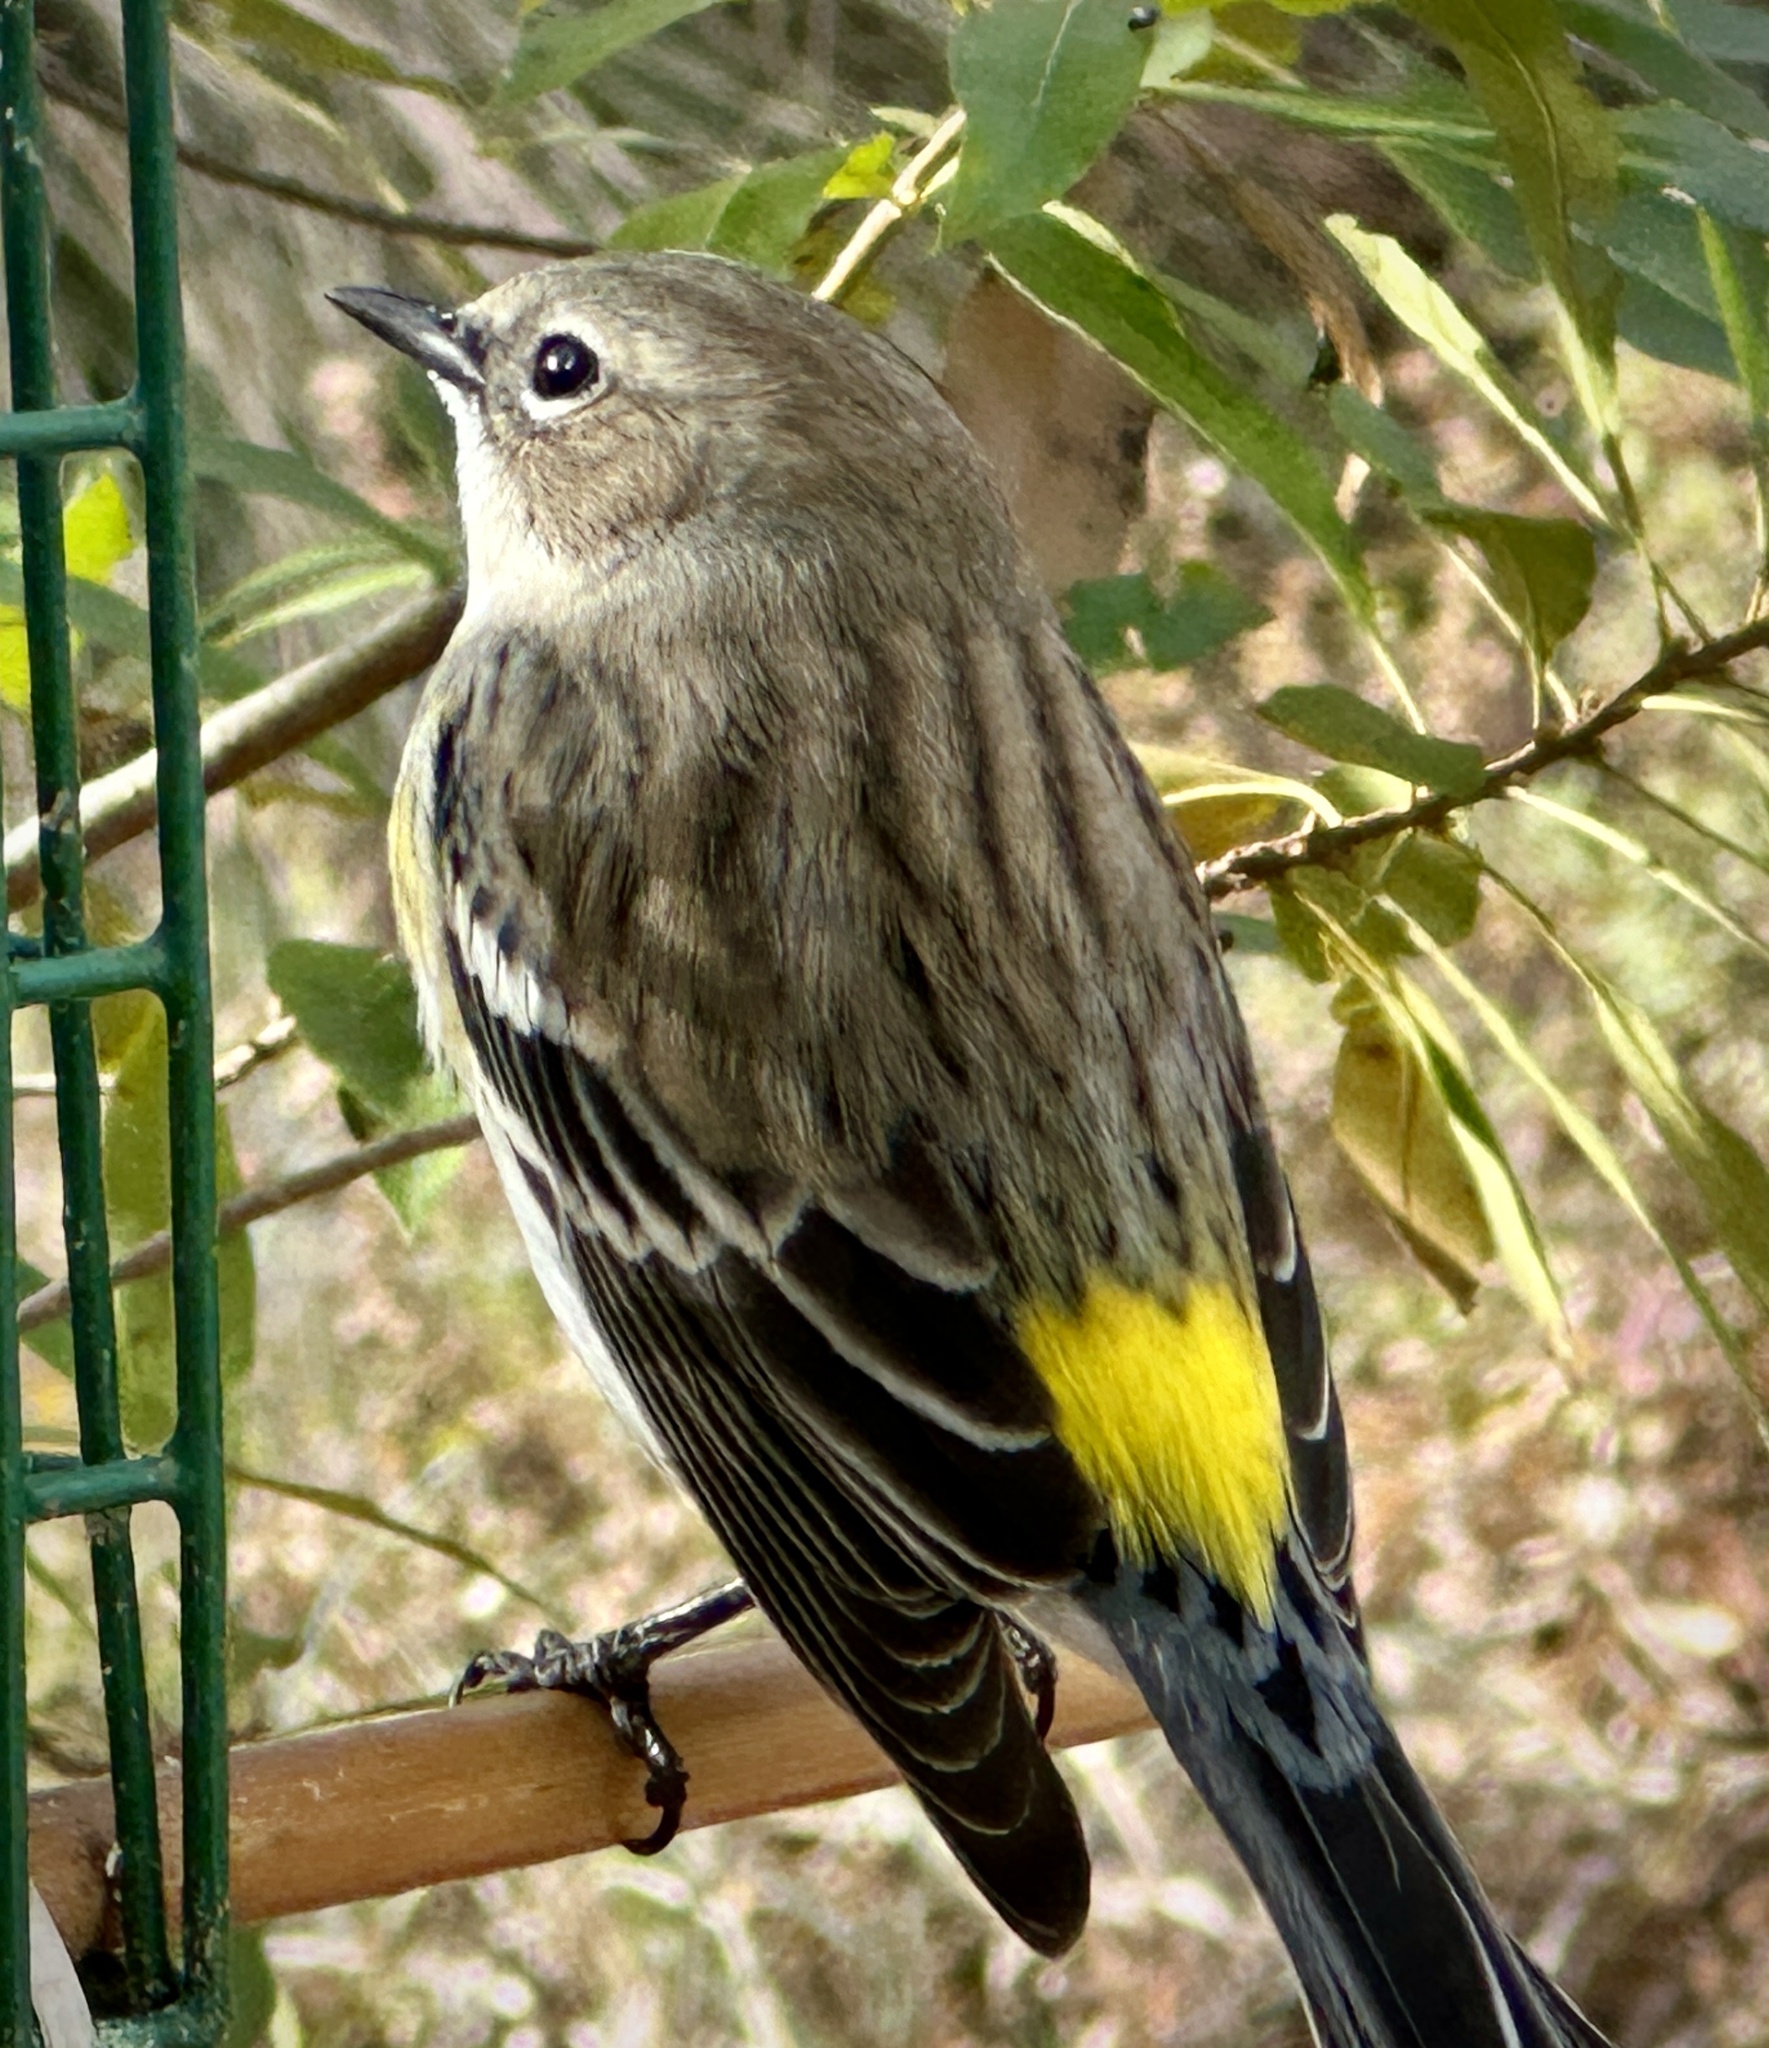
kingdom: Animalia
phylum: Chordata
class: Aves
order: Passeriformes
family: Parulidae
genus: Setophaga
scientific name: Setophaga coronata
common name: Myrtle warbler
